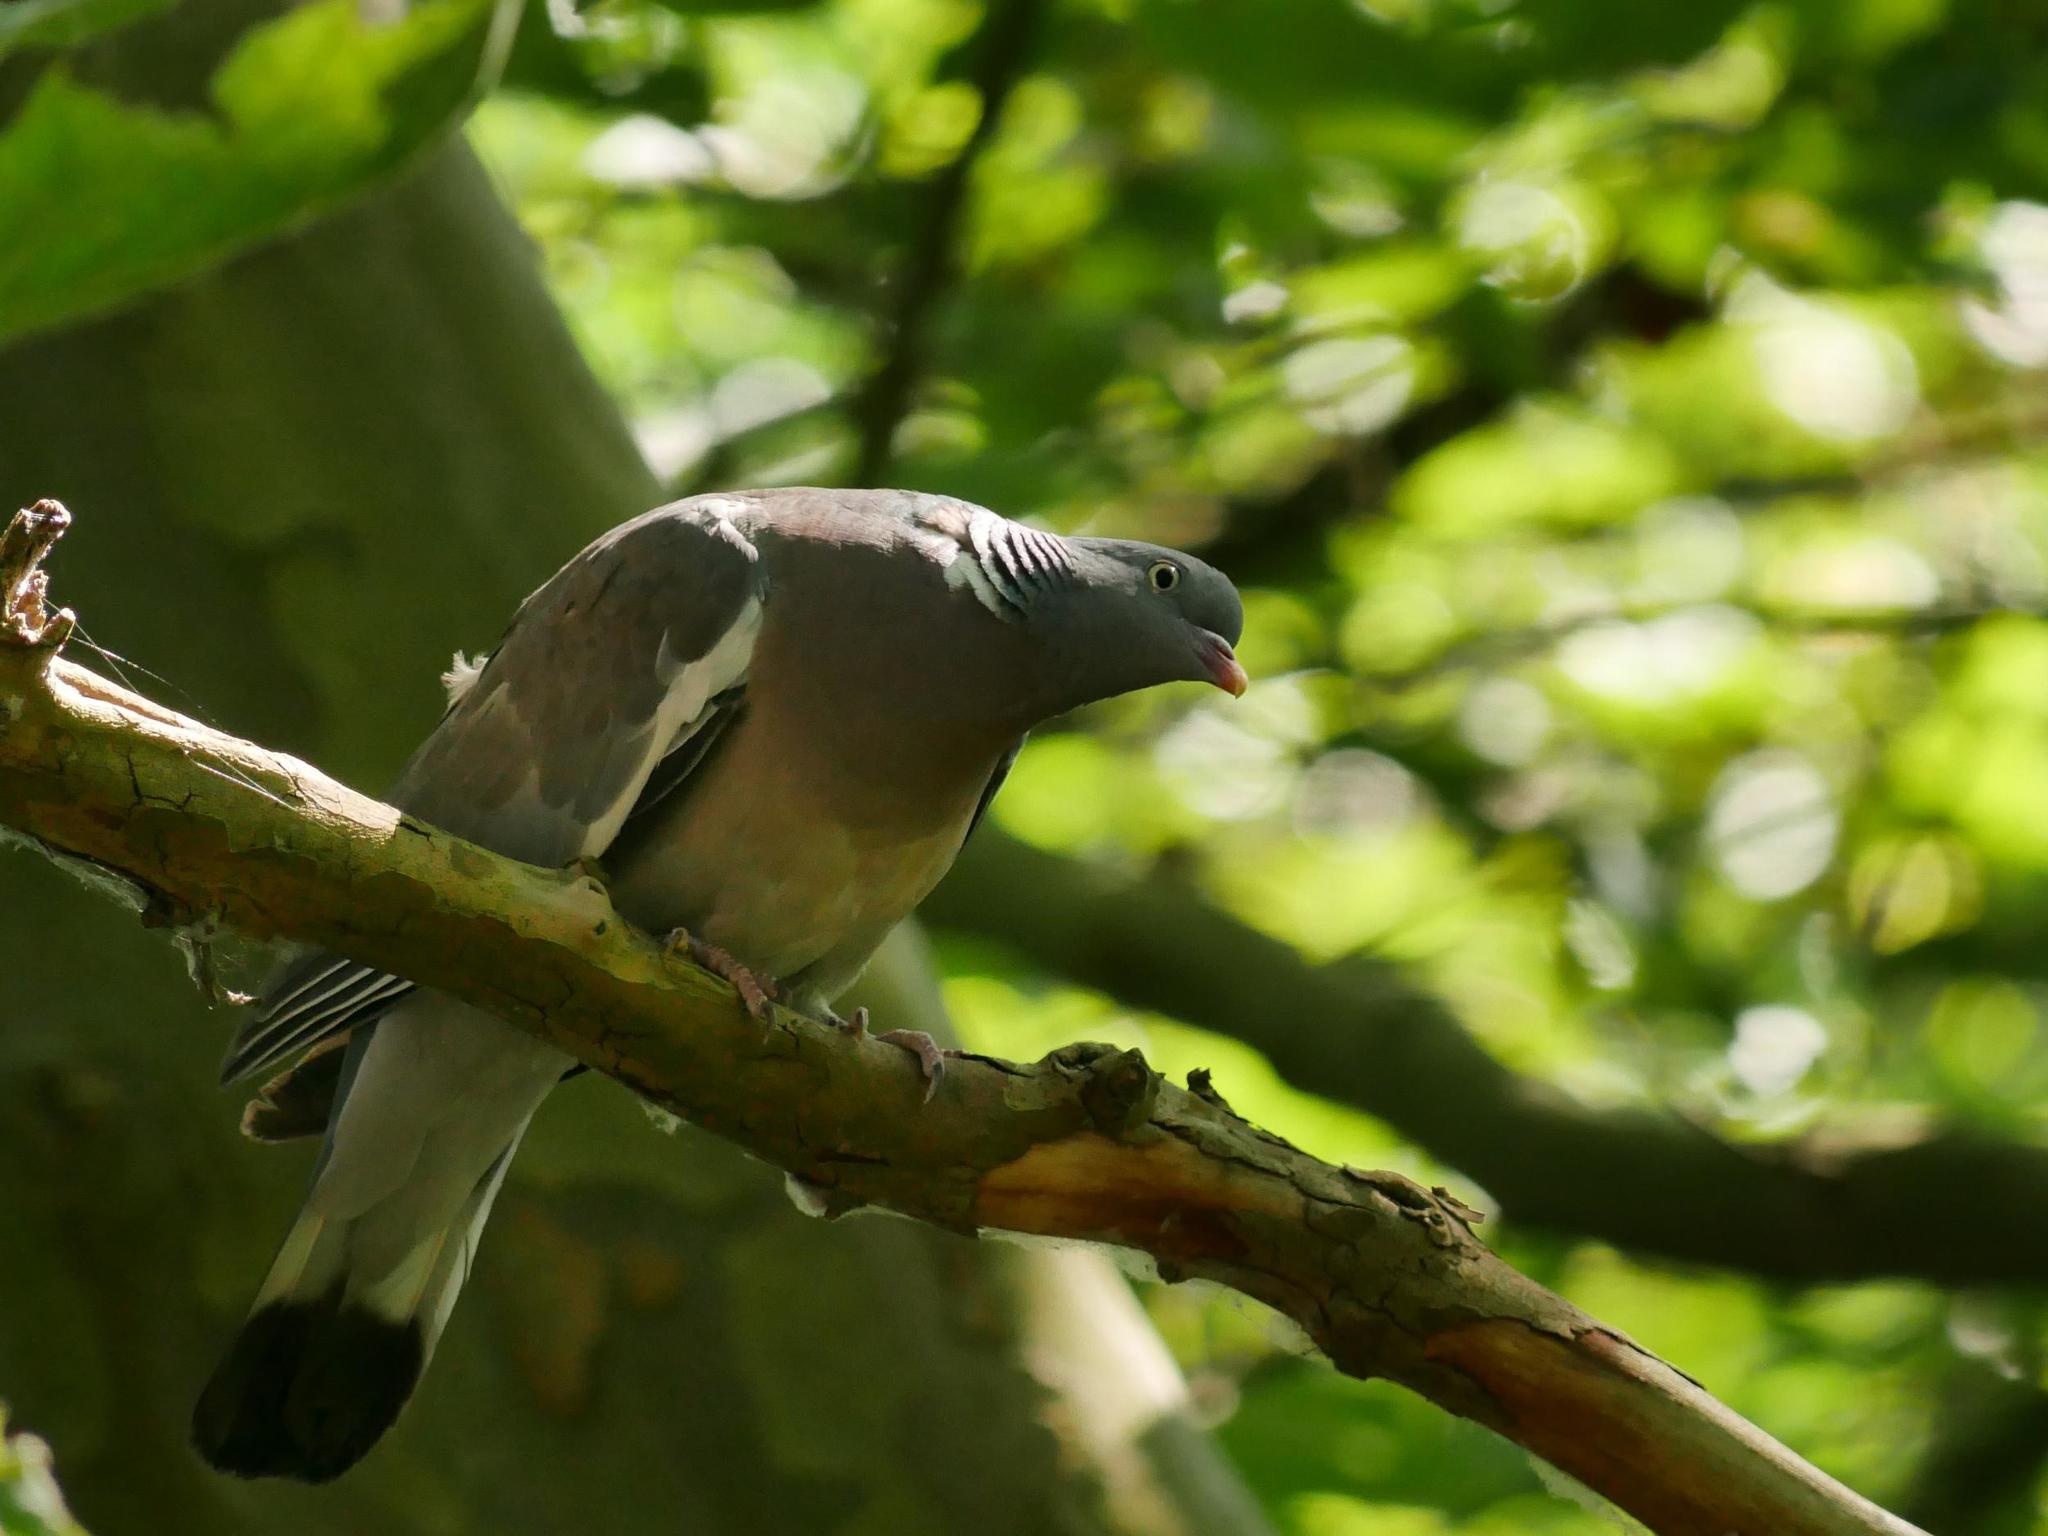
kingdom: Animalia
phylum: Chordata
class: Aves
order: Columbiformes
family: Columbidae
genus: Columba
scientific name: Columba palumbus
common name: Common wood pigeon
